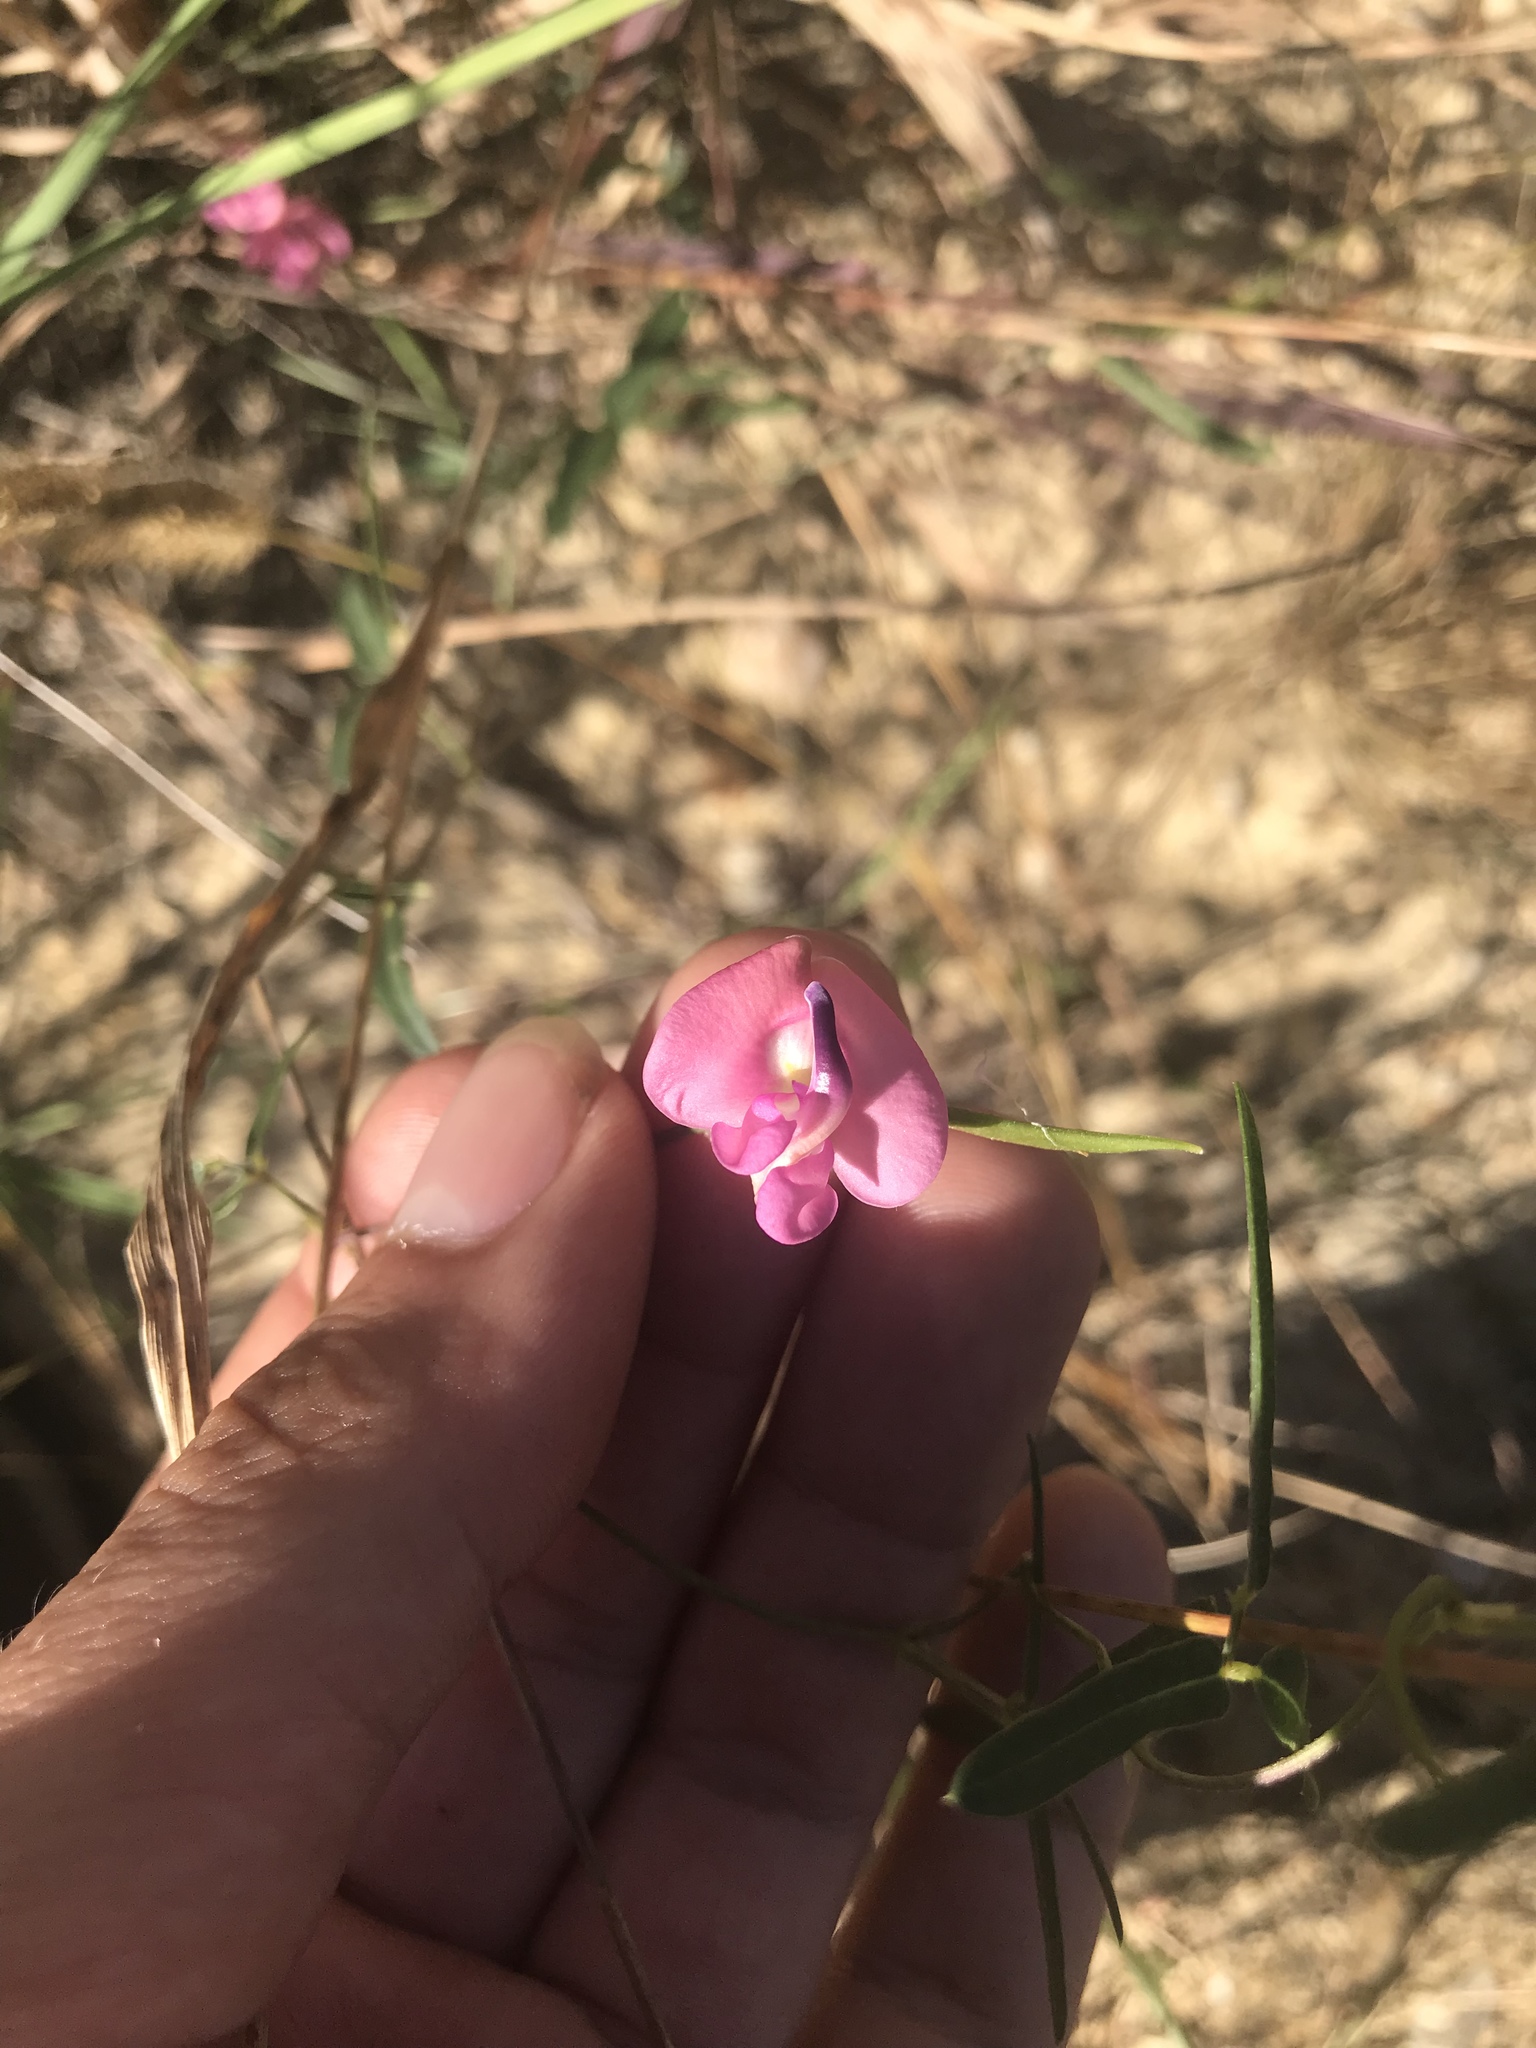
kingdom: Plantae
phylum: Tracheophyta
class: Magnoliopsida
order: Fabales
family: Fabaceae
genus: Strophostyles
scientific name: Strophostyles umbellata
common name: Perennial wild bean
